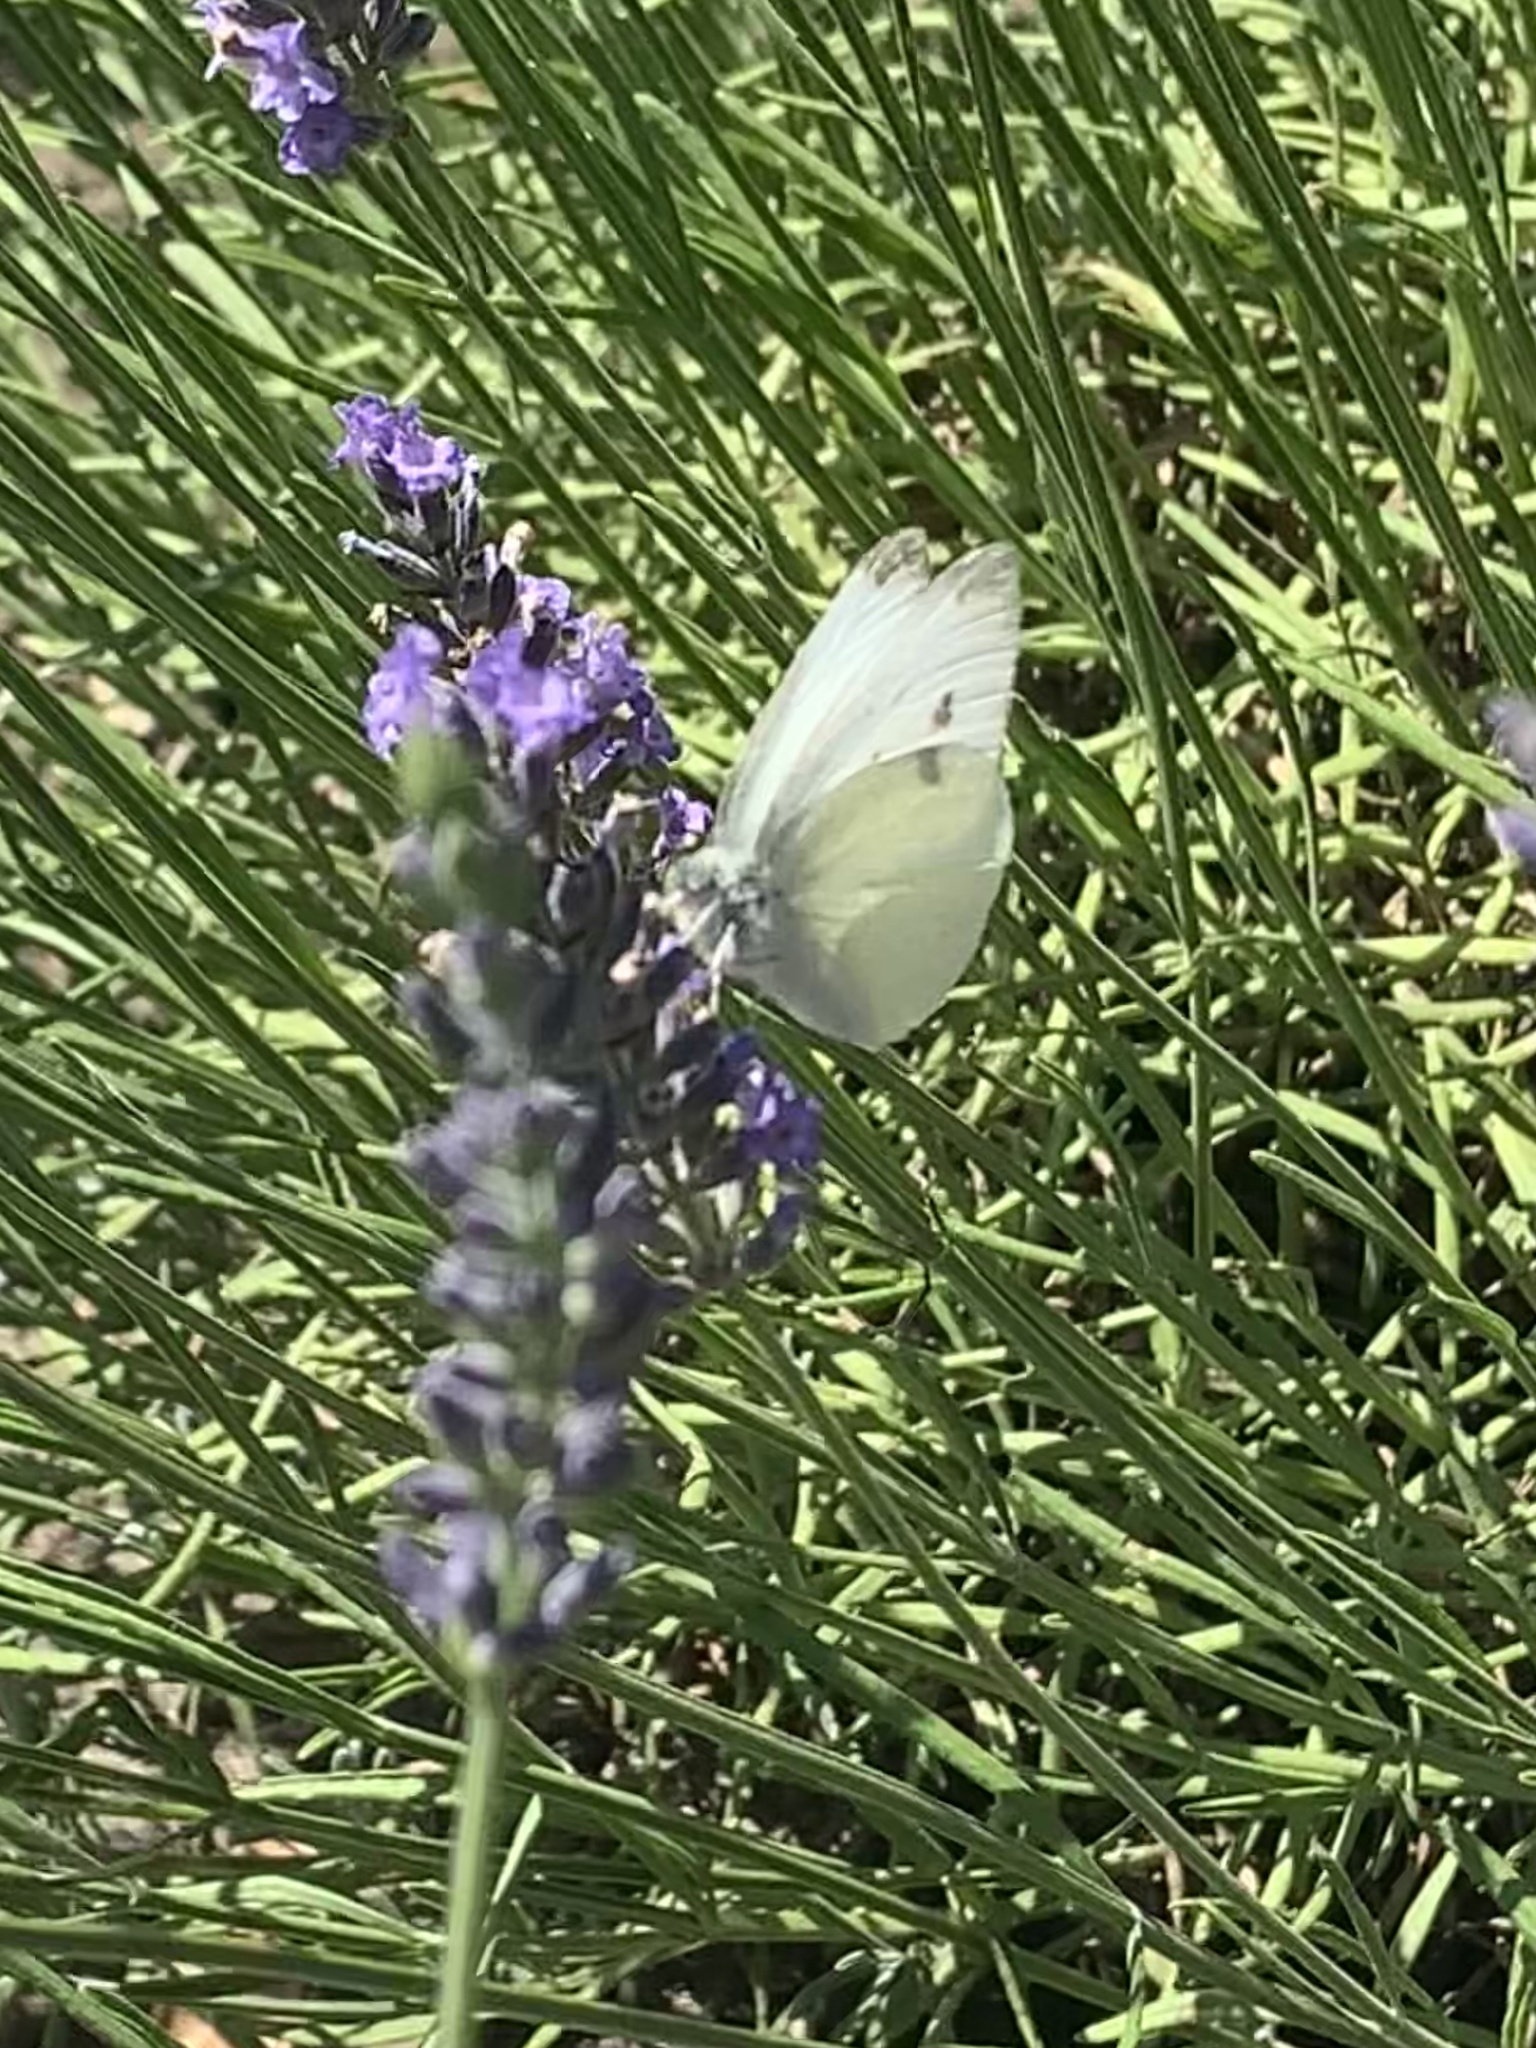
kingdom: Animalia
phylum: Arthropoda
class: Insecta
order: Lepidoptera
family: Pieridae
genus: Pieris
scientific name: Pieris rapae
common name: Small white
